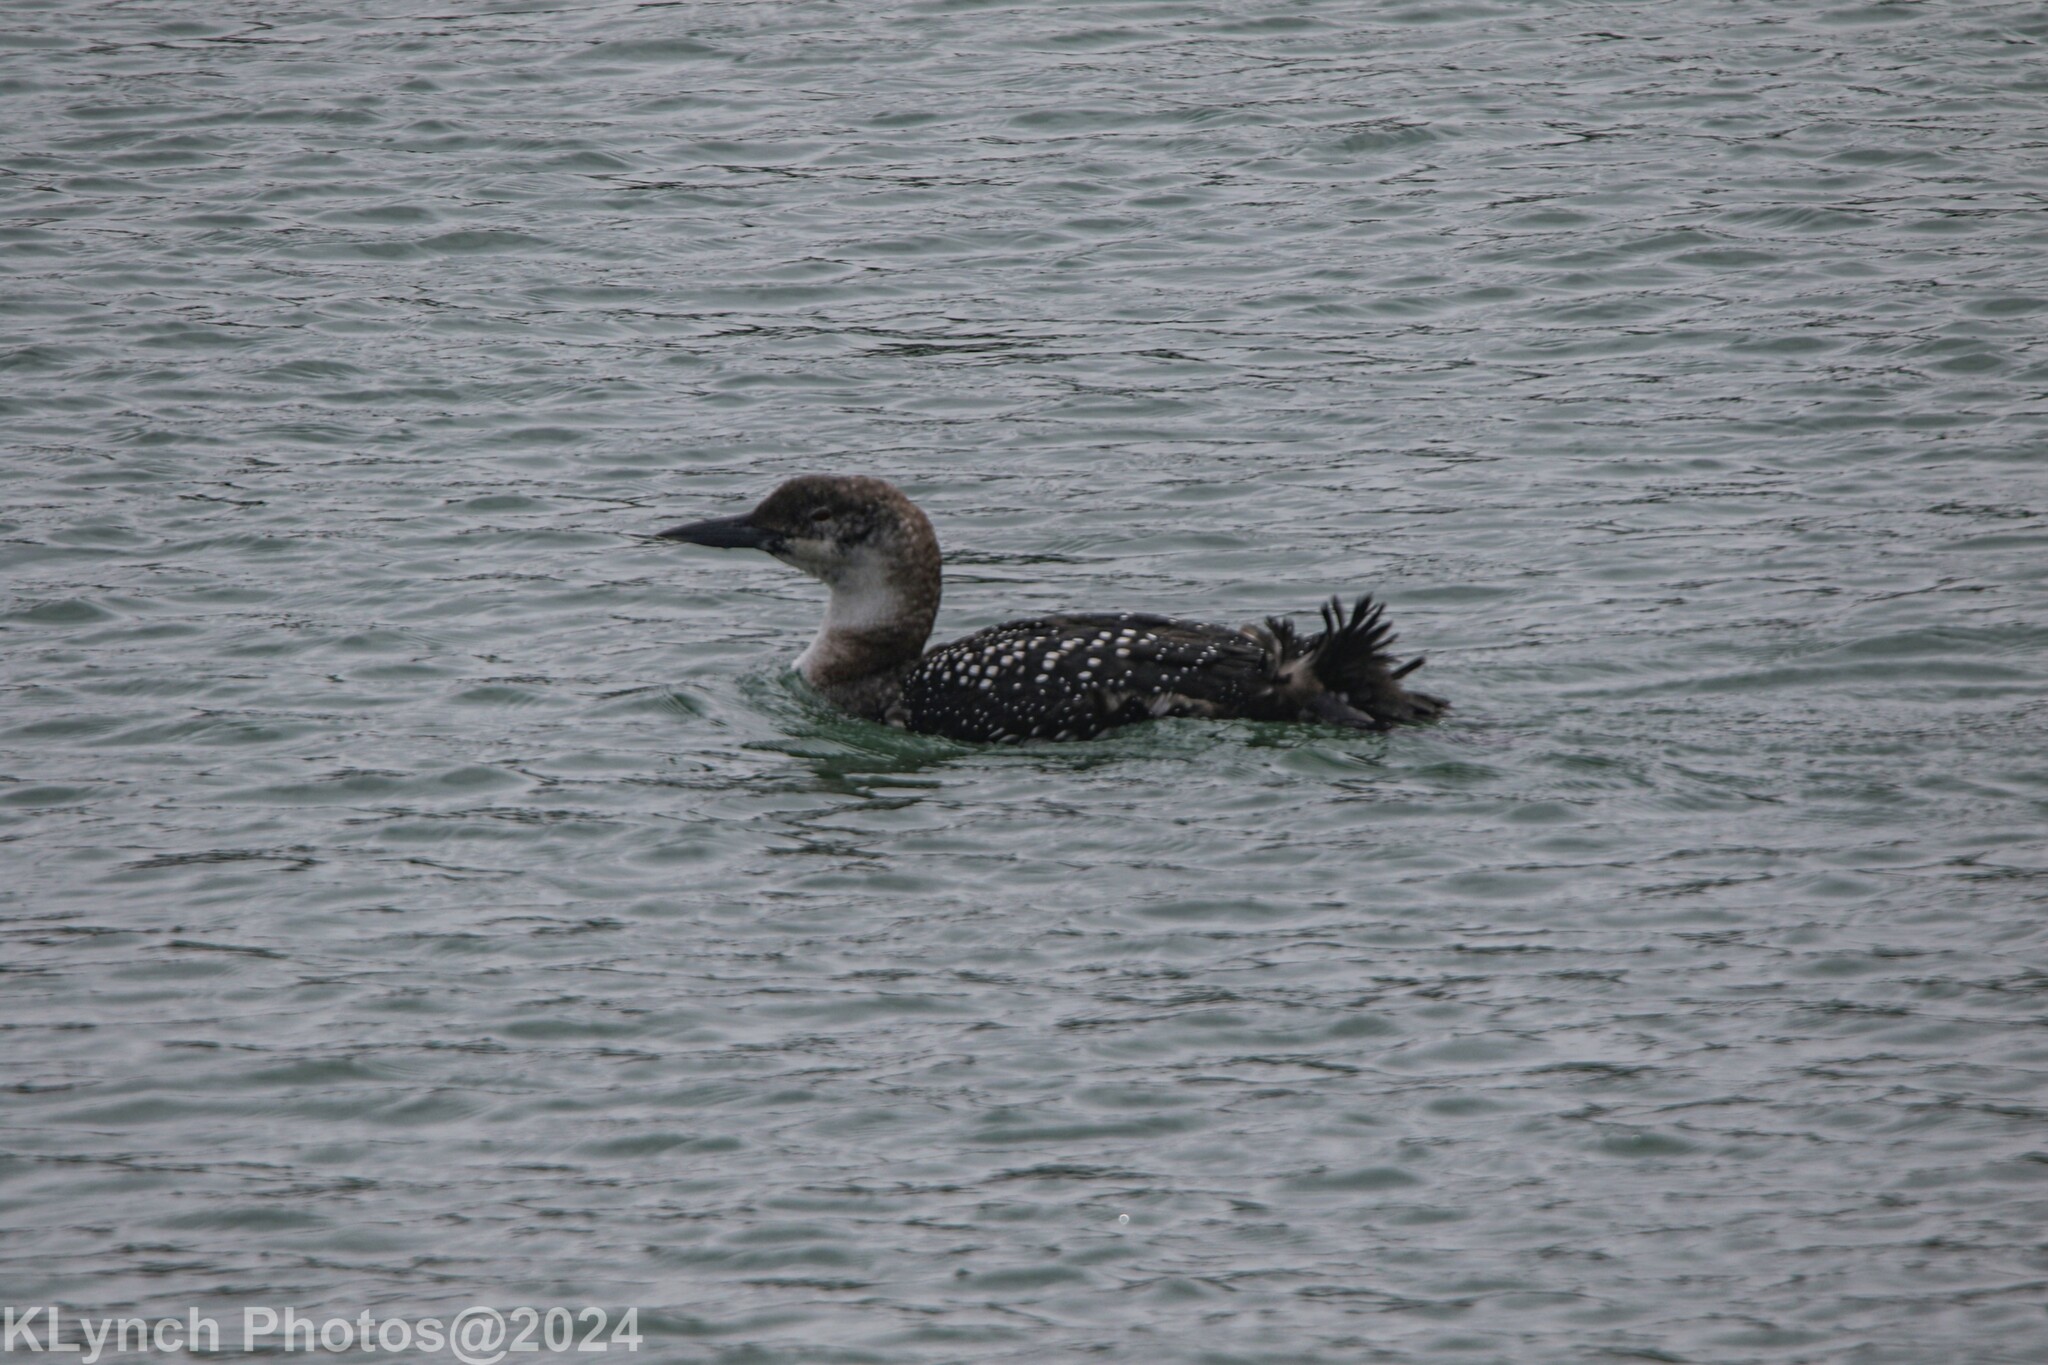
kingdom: Animalia
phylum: Chordata
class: Aves
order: Gaviiformes
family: Gaviidae
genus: Gavia
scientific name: Gavia immer
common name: Common loon
